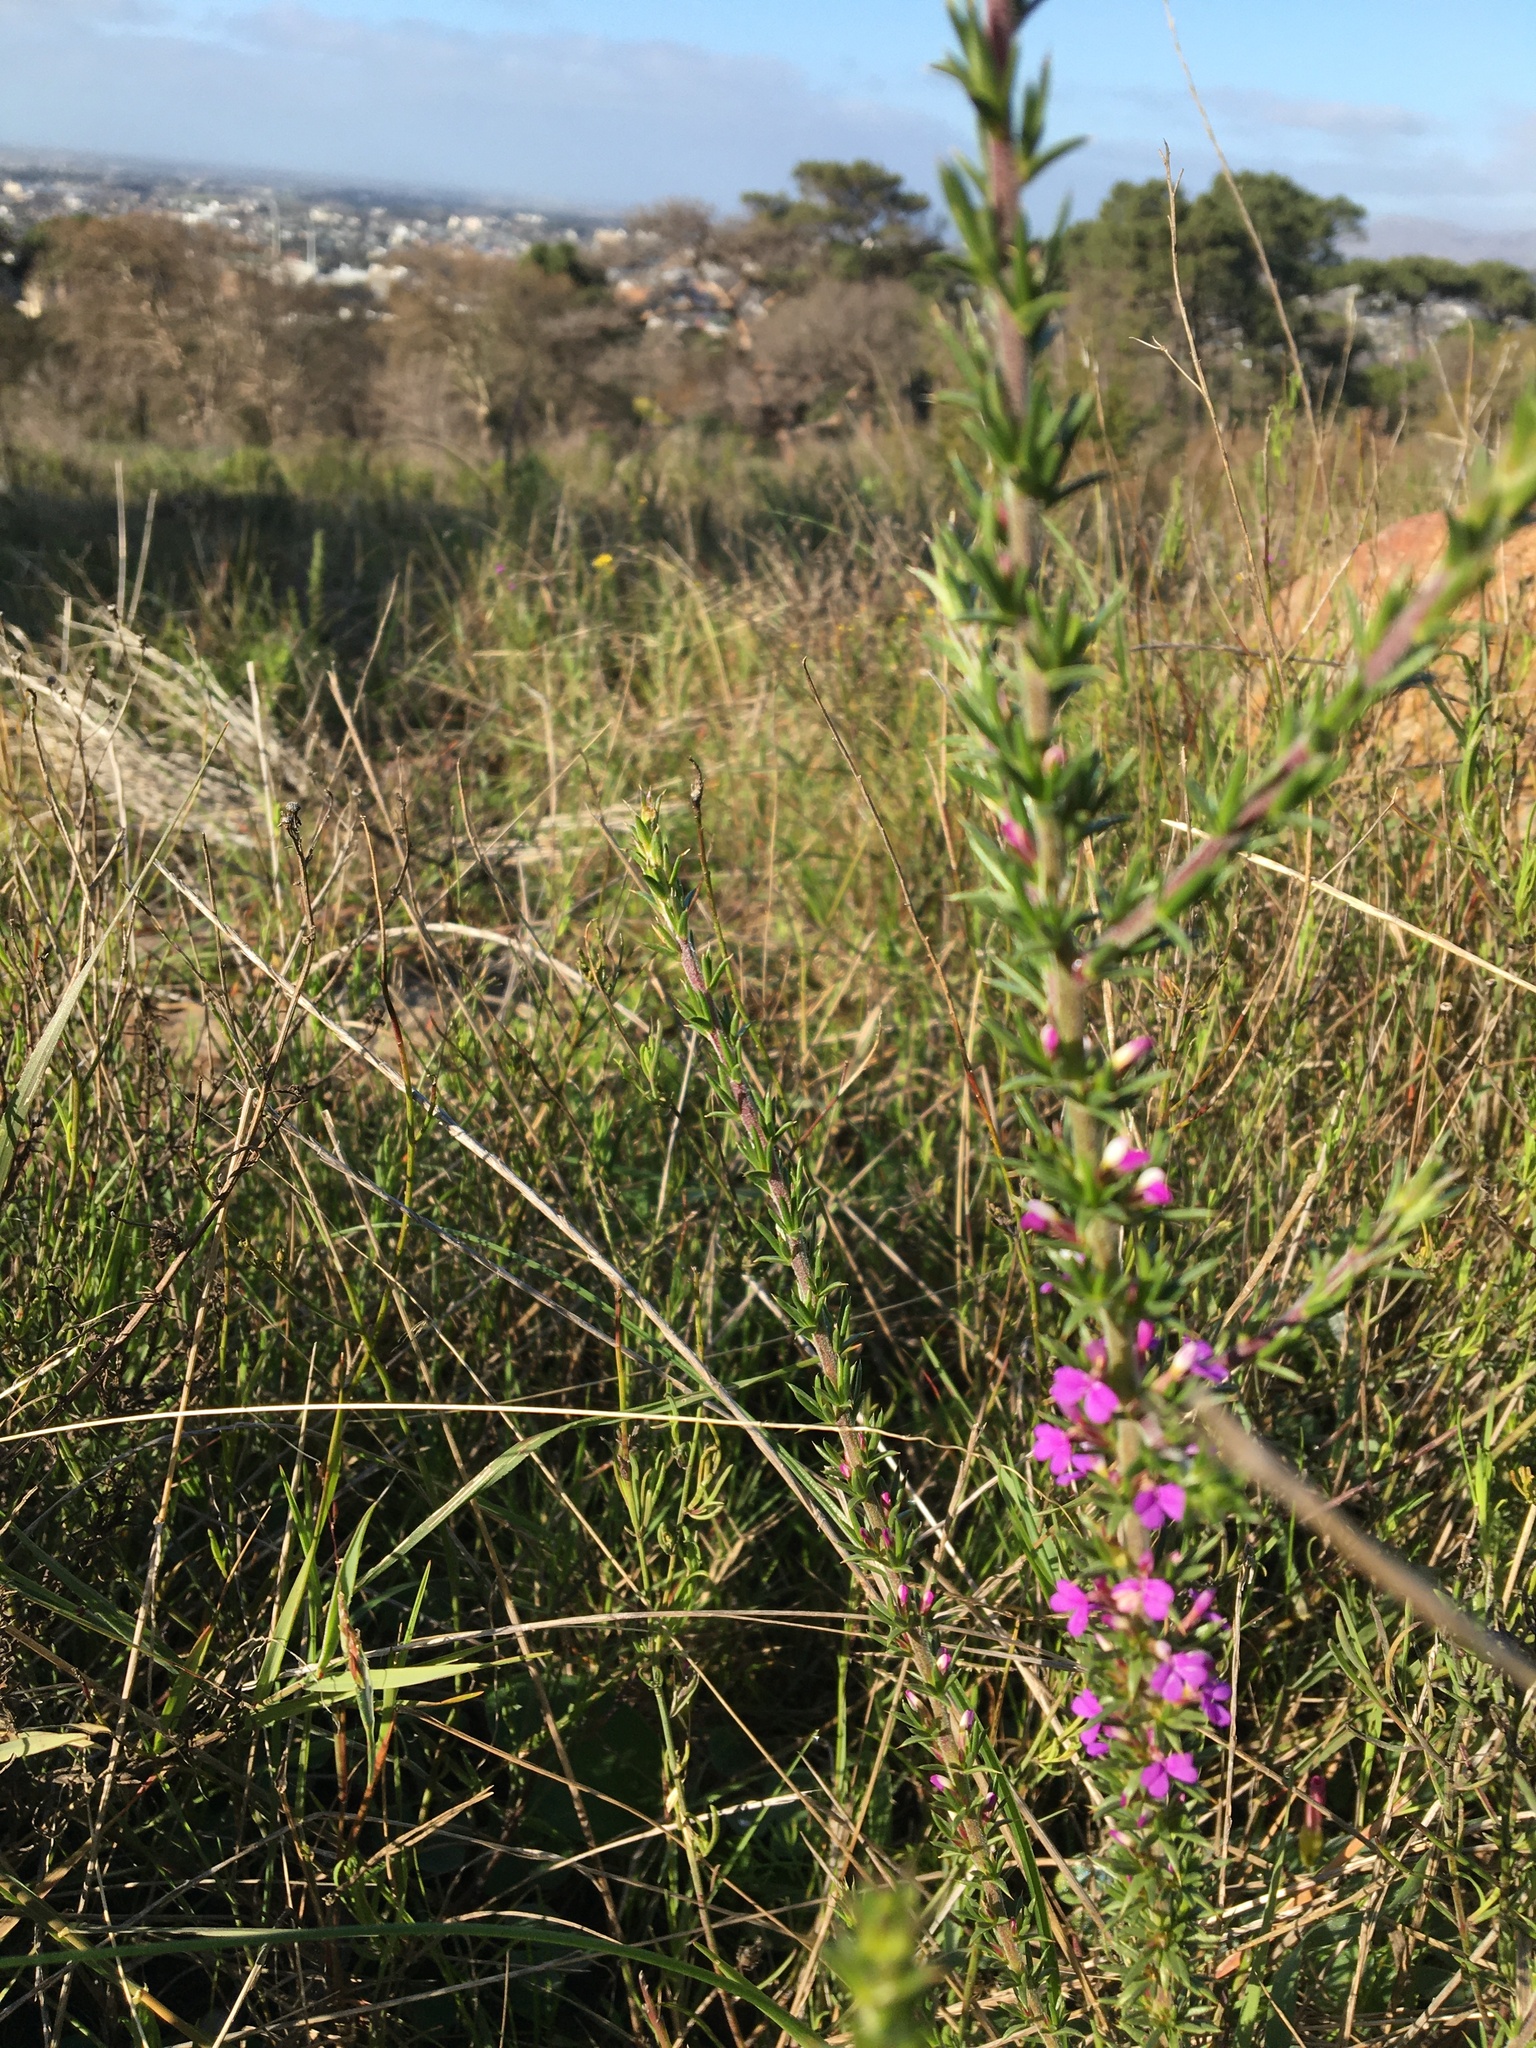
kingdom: Plantae
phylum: Tracheophyta
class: Magnoliopsida
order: Fabales
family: Polygalaceae
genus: Muraltia
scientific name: Muraltia heisteria
